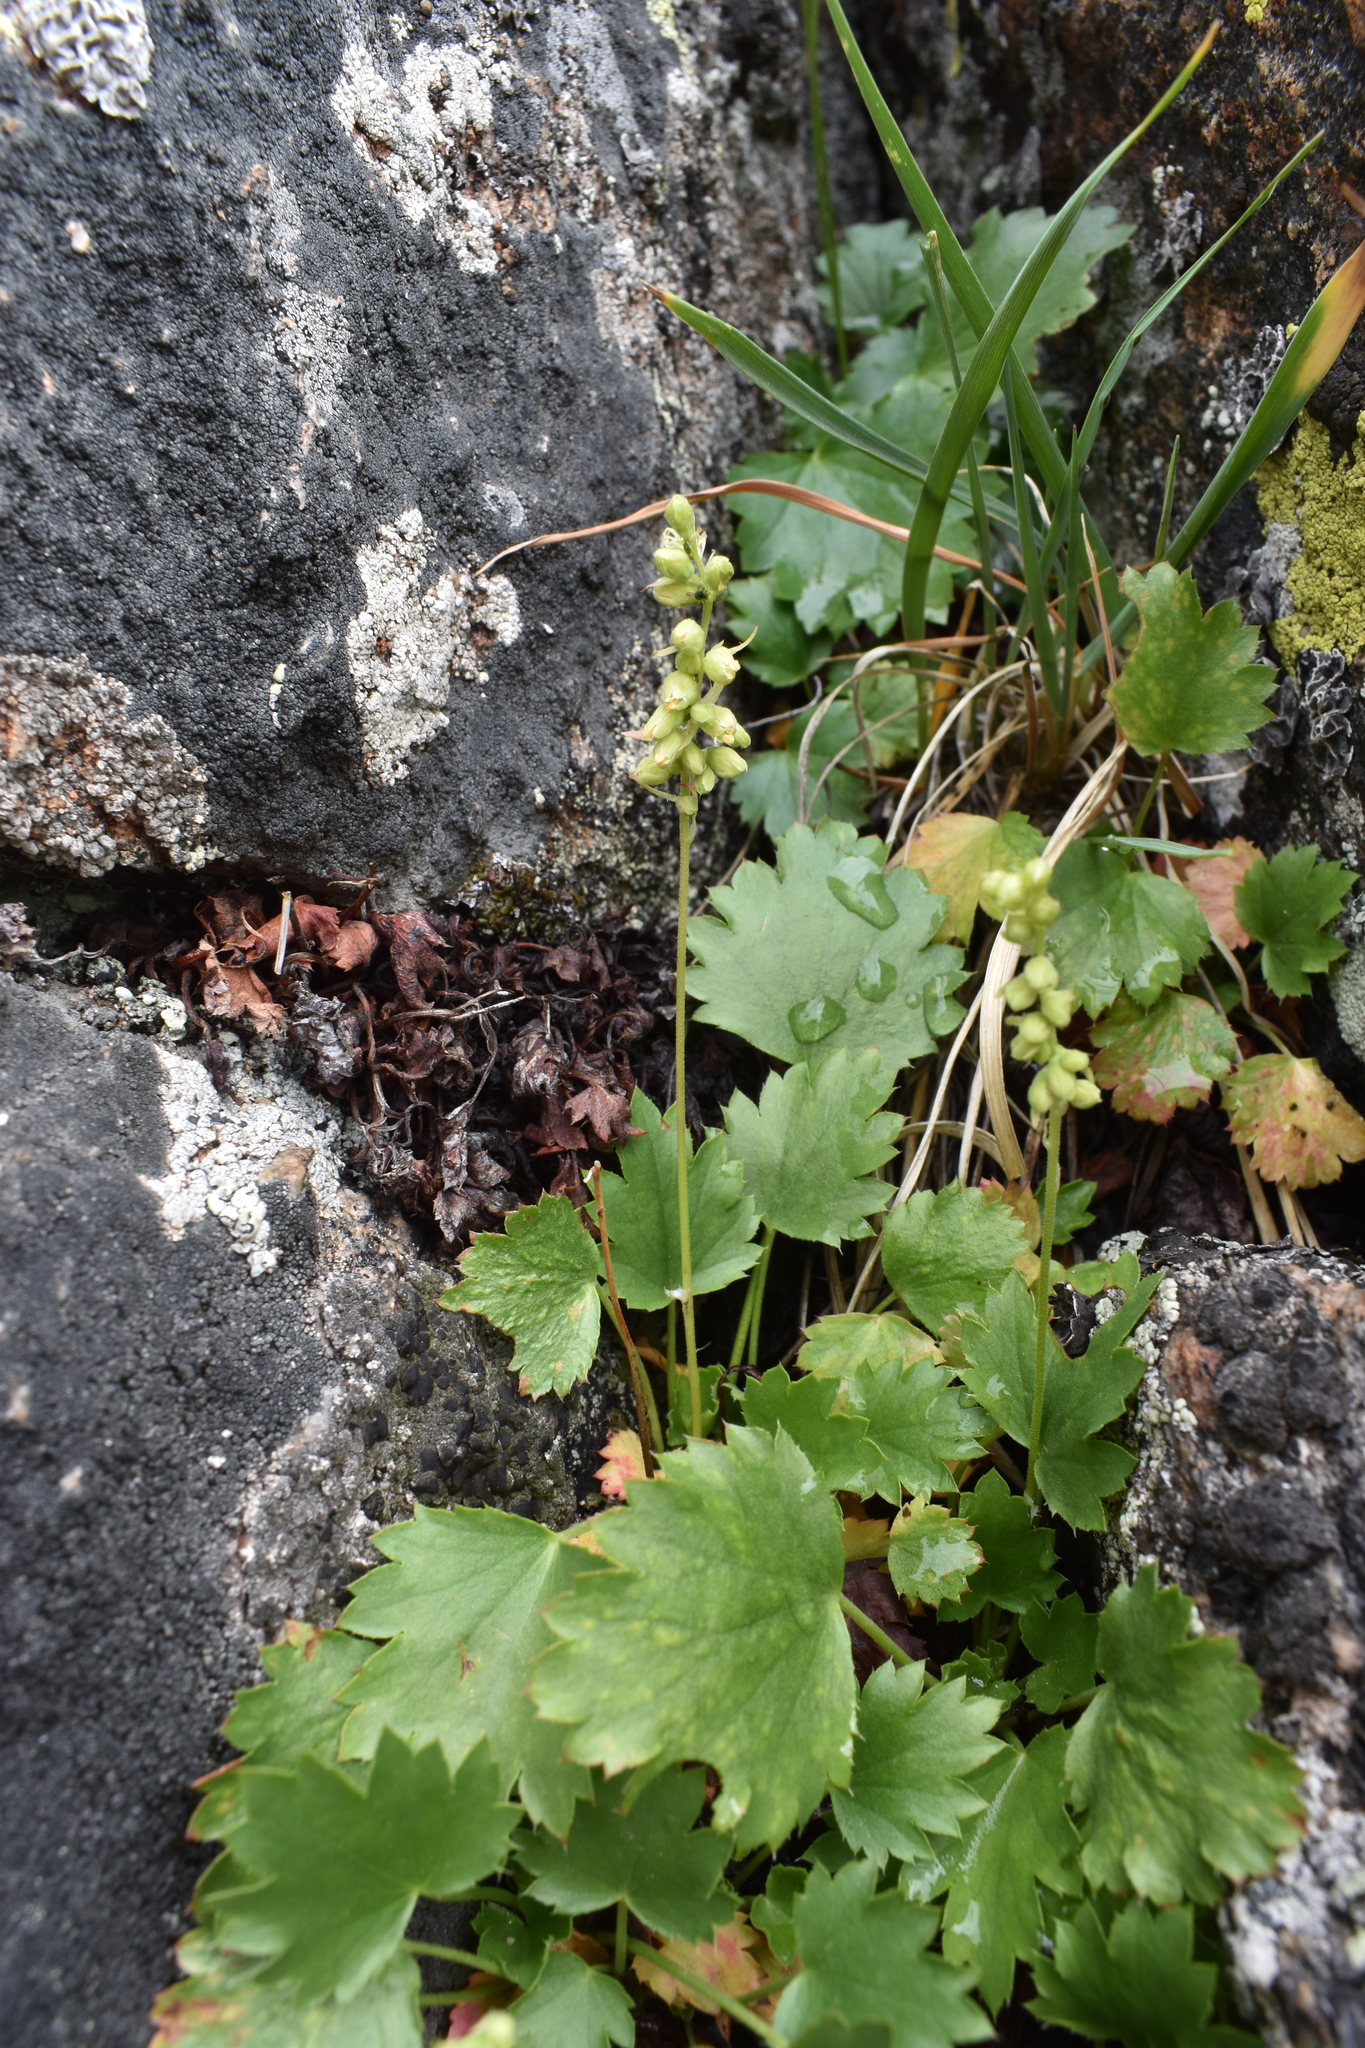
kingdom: Plantae
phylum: Tracheophyta
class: Magnoliopsida
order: Saxifragales
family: Saxifragaceae
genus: Heuchera
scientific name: Heuchera bracteata
